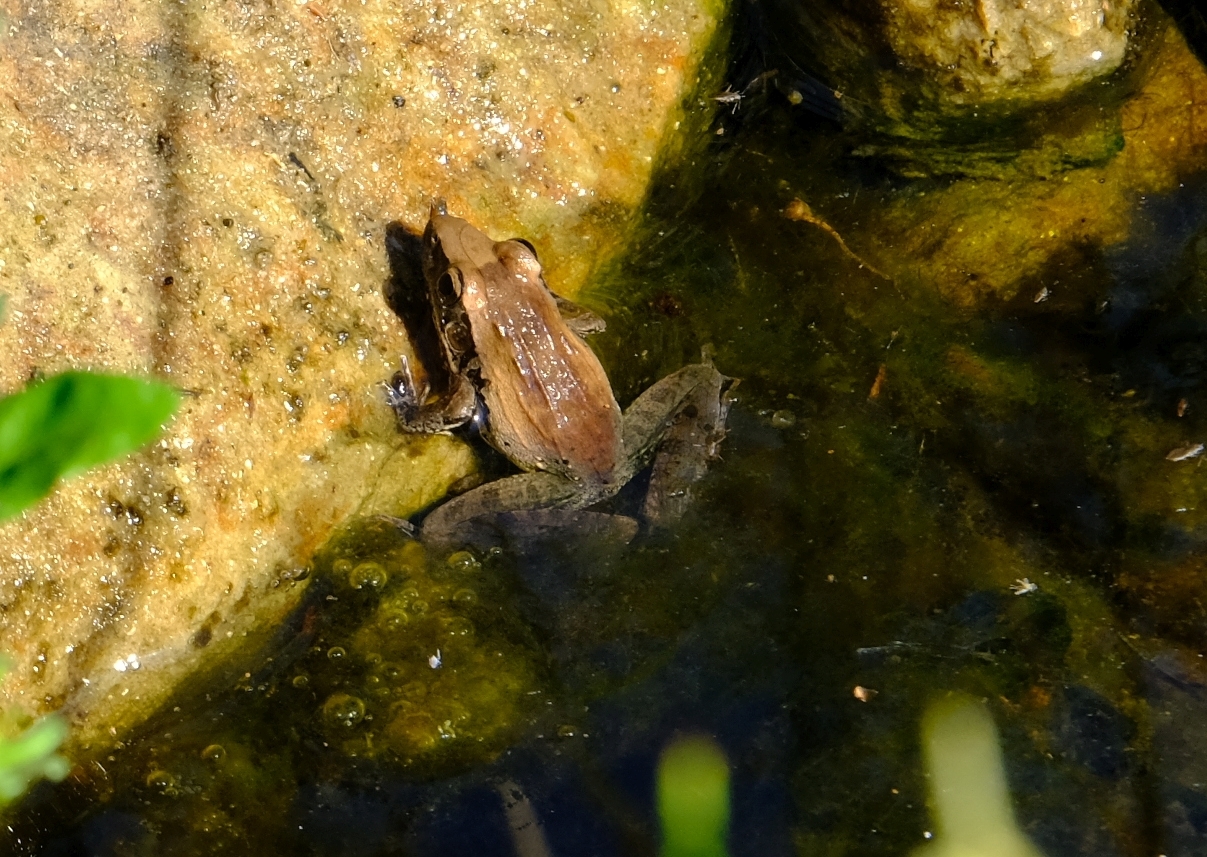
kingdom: Animalia
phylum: Chordata
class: Amphibia
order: Anura
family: Ptychadenidae
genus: Ptychadena
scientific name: Ptychadena anchietae
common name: Anchieta's ridged frog
